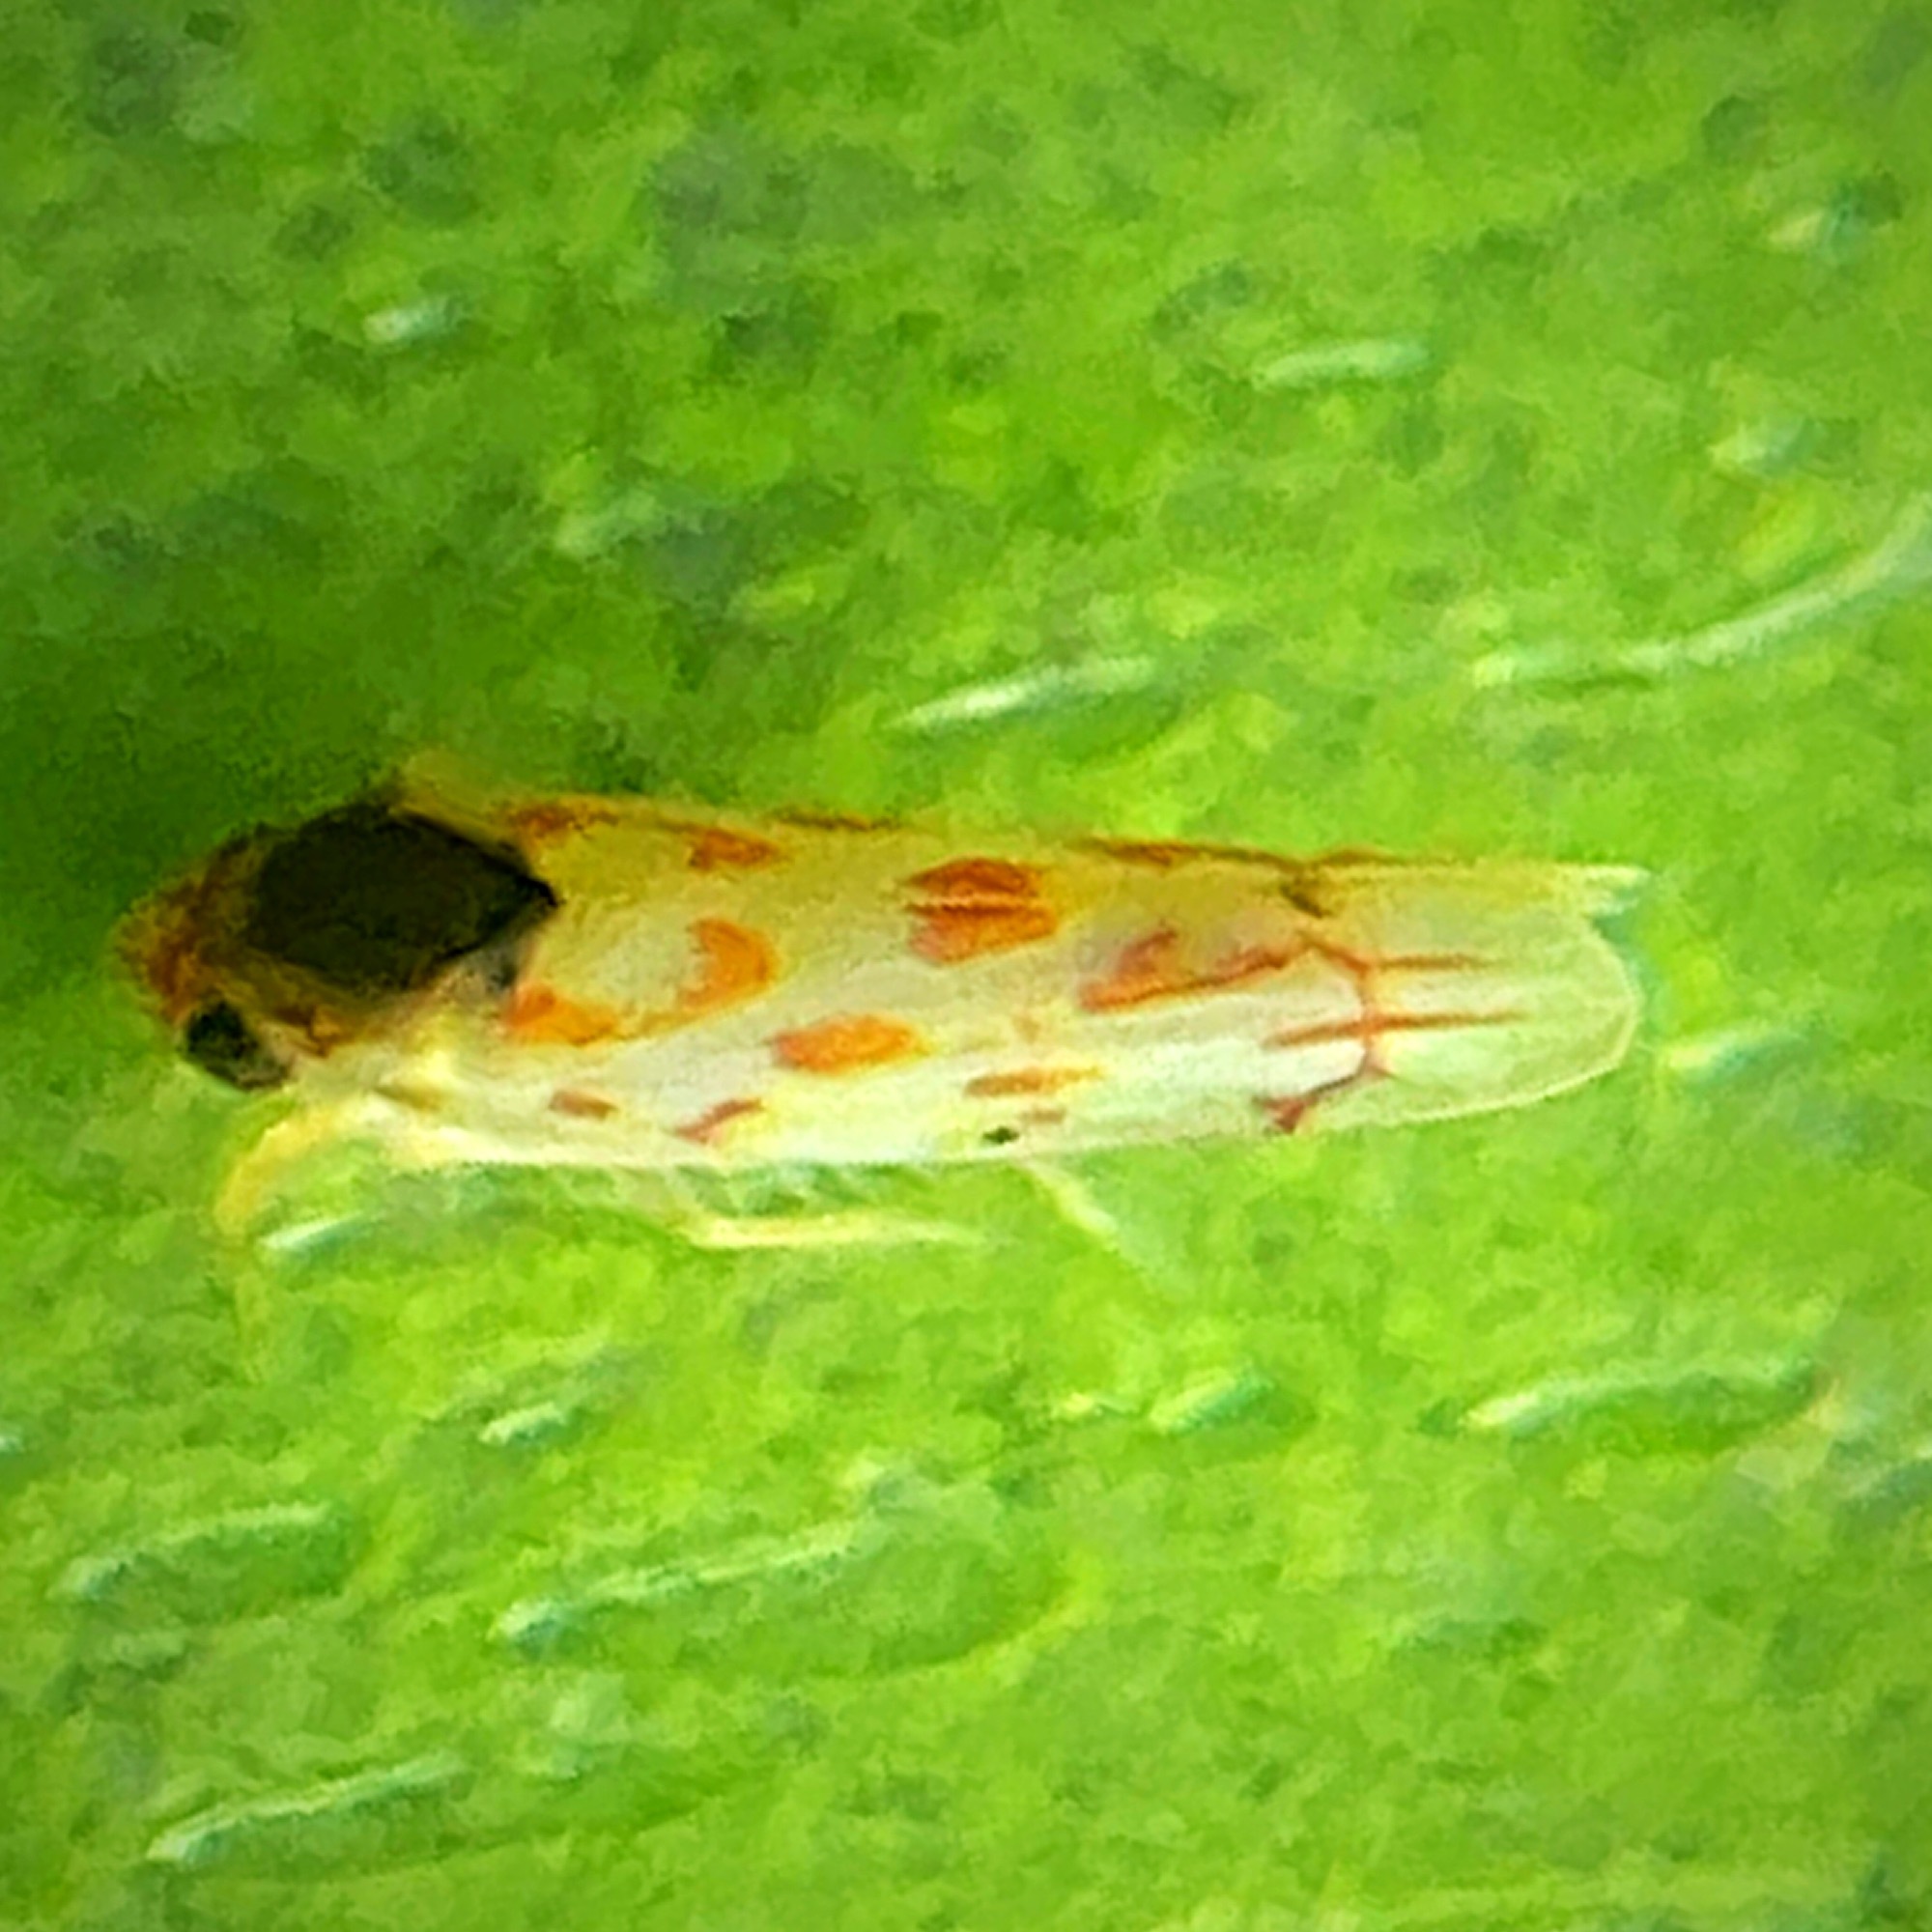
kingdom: Animalia
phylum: Arthropoda
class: Insecta
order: Hemiptera
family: Cicadellidae
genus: Eratoneura
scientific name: Eratoneura ardens
